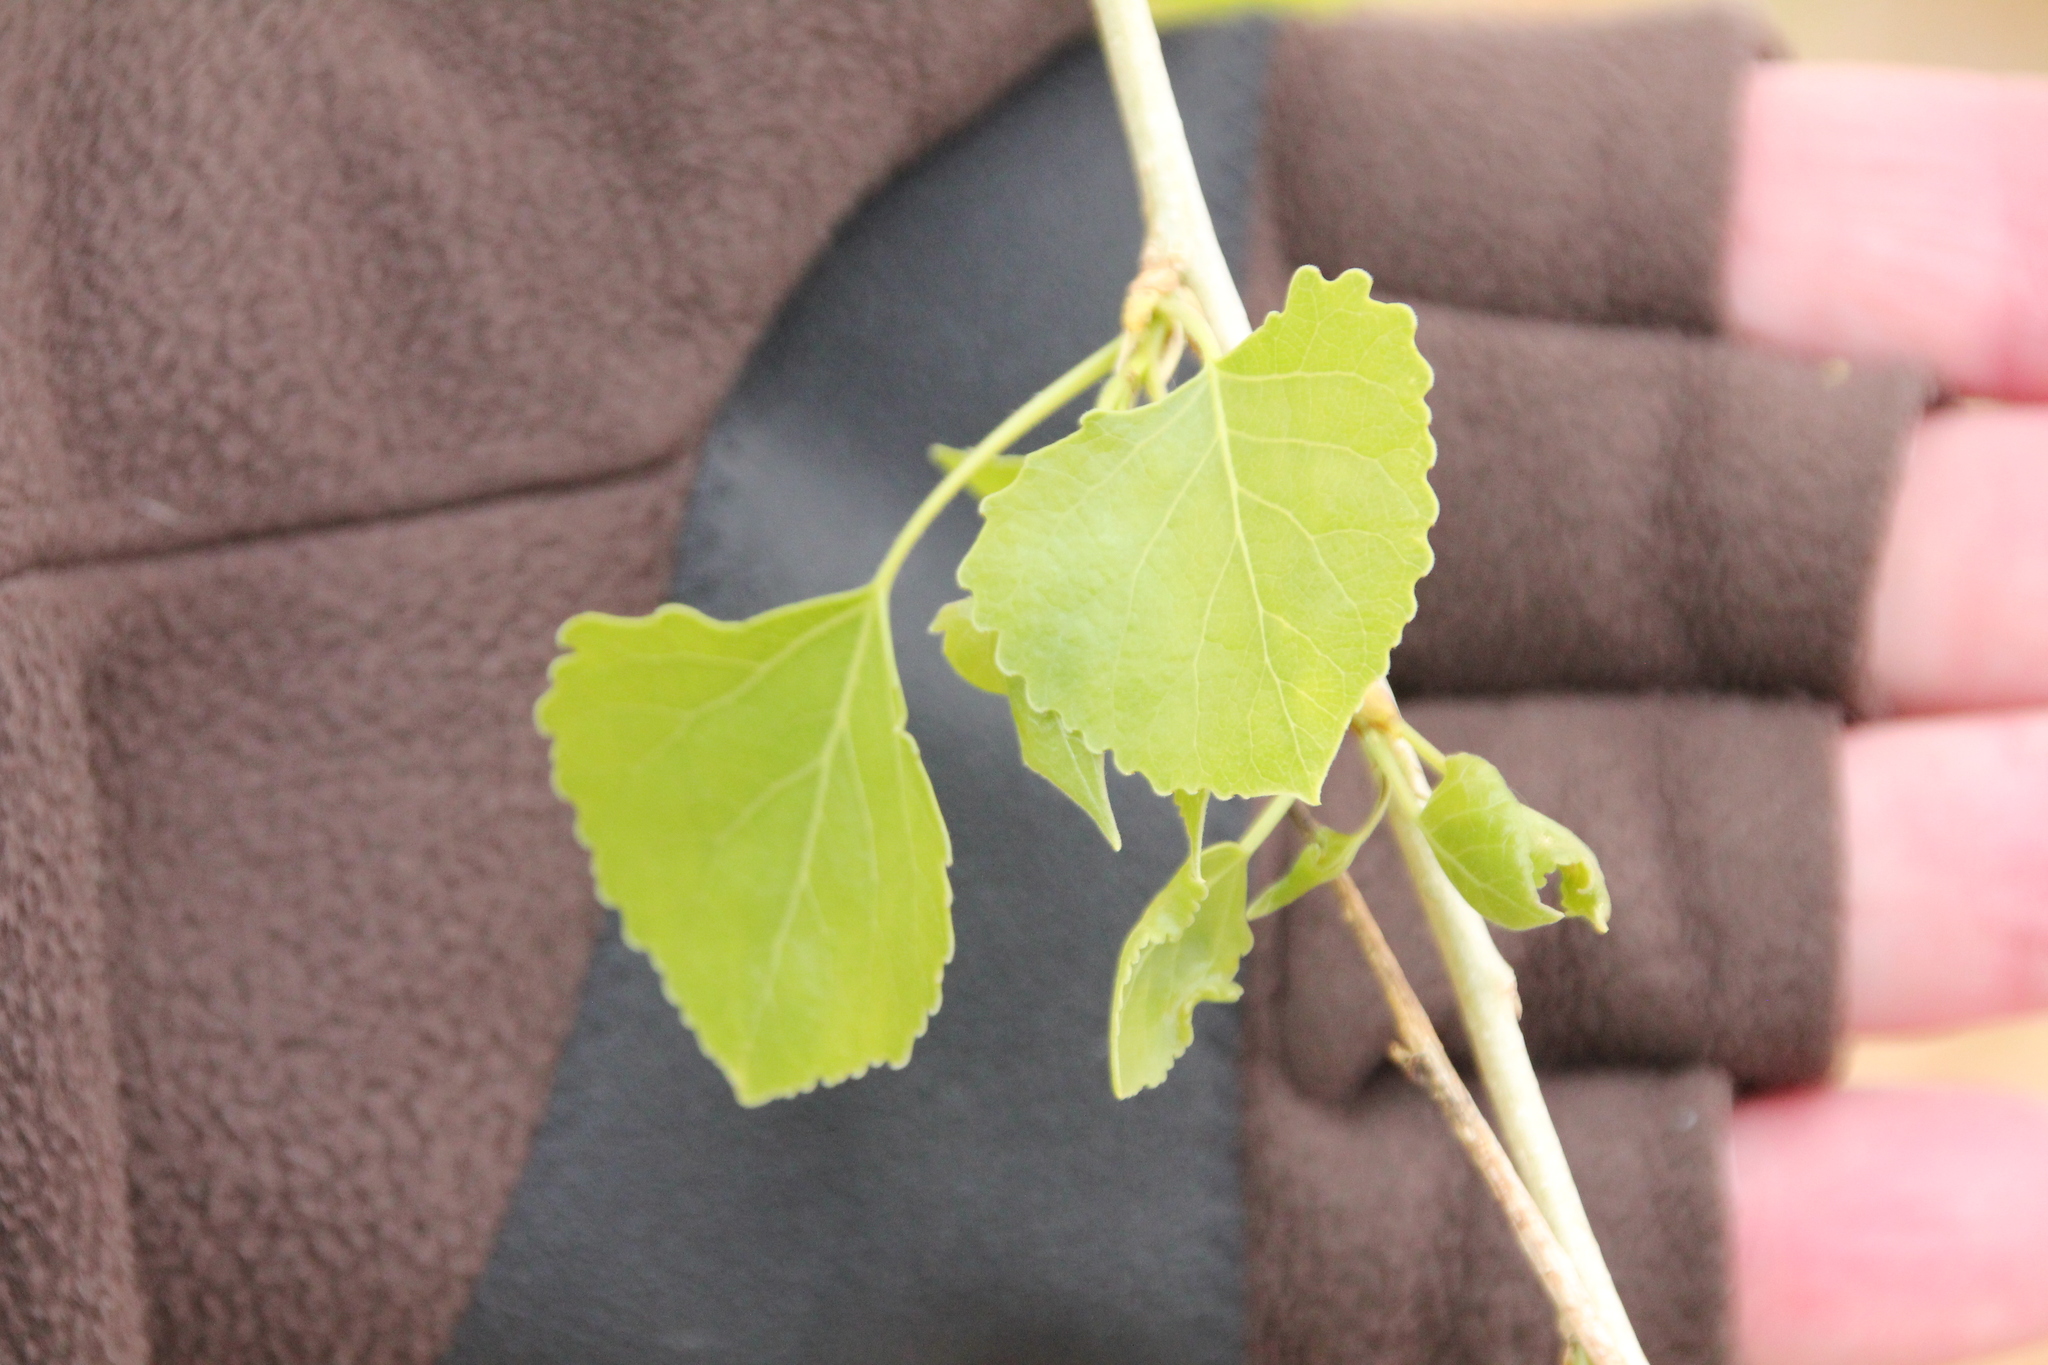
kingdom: Plantae
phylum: Tracheophyta
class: Magnoliopsida
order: Malpighiales
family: Salicaceae
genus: Populus
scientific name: Populus fremontii
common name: Fremont's cottonwood
